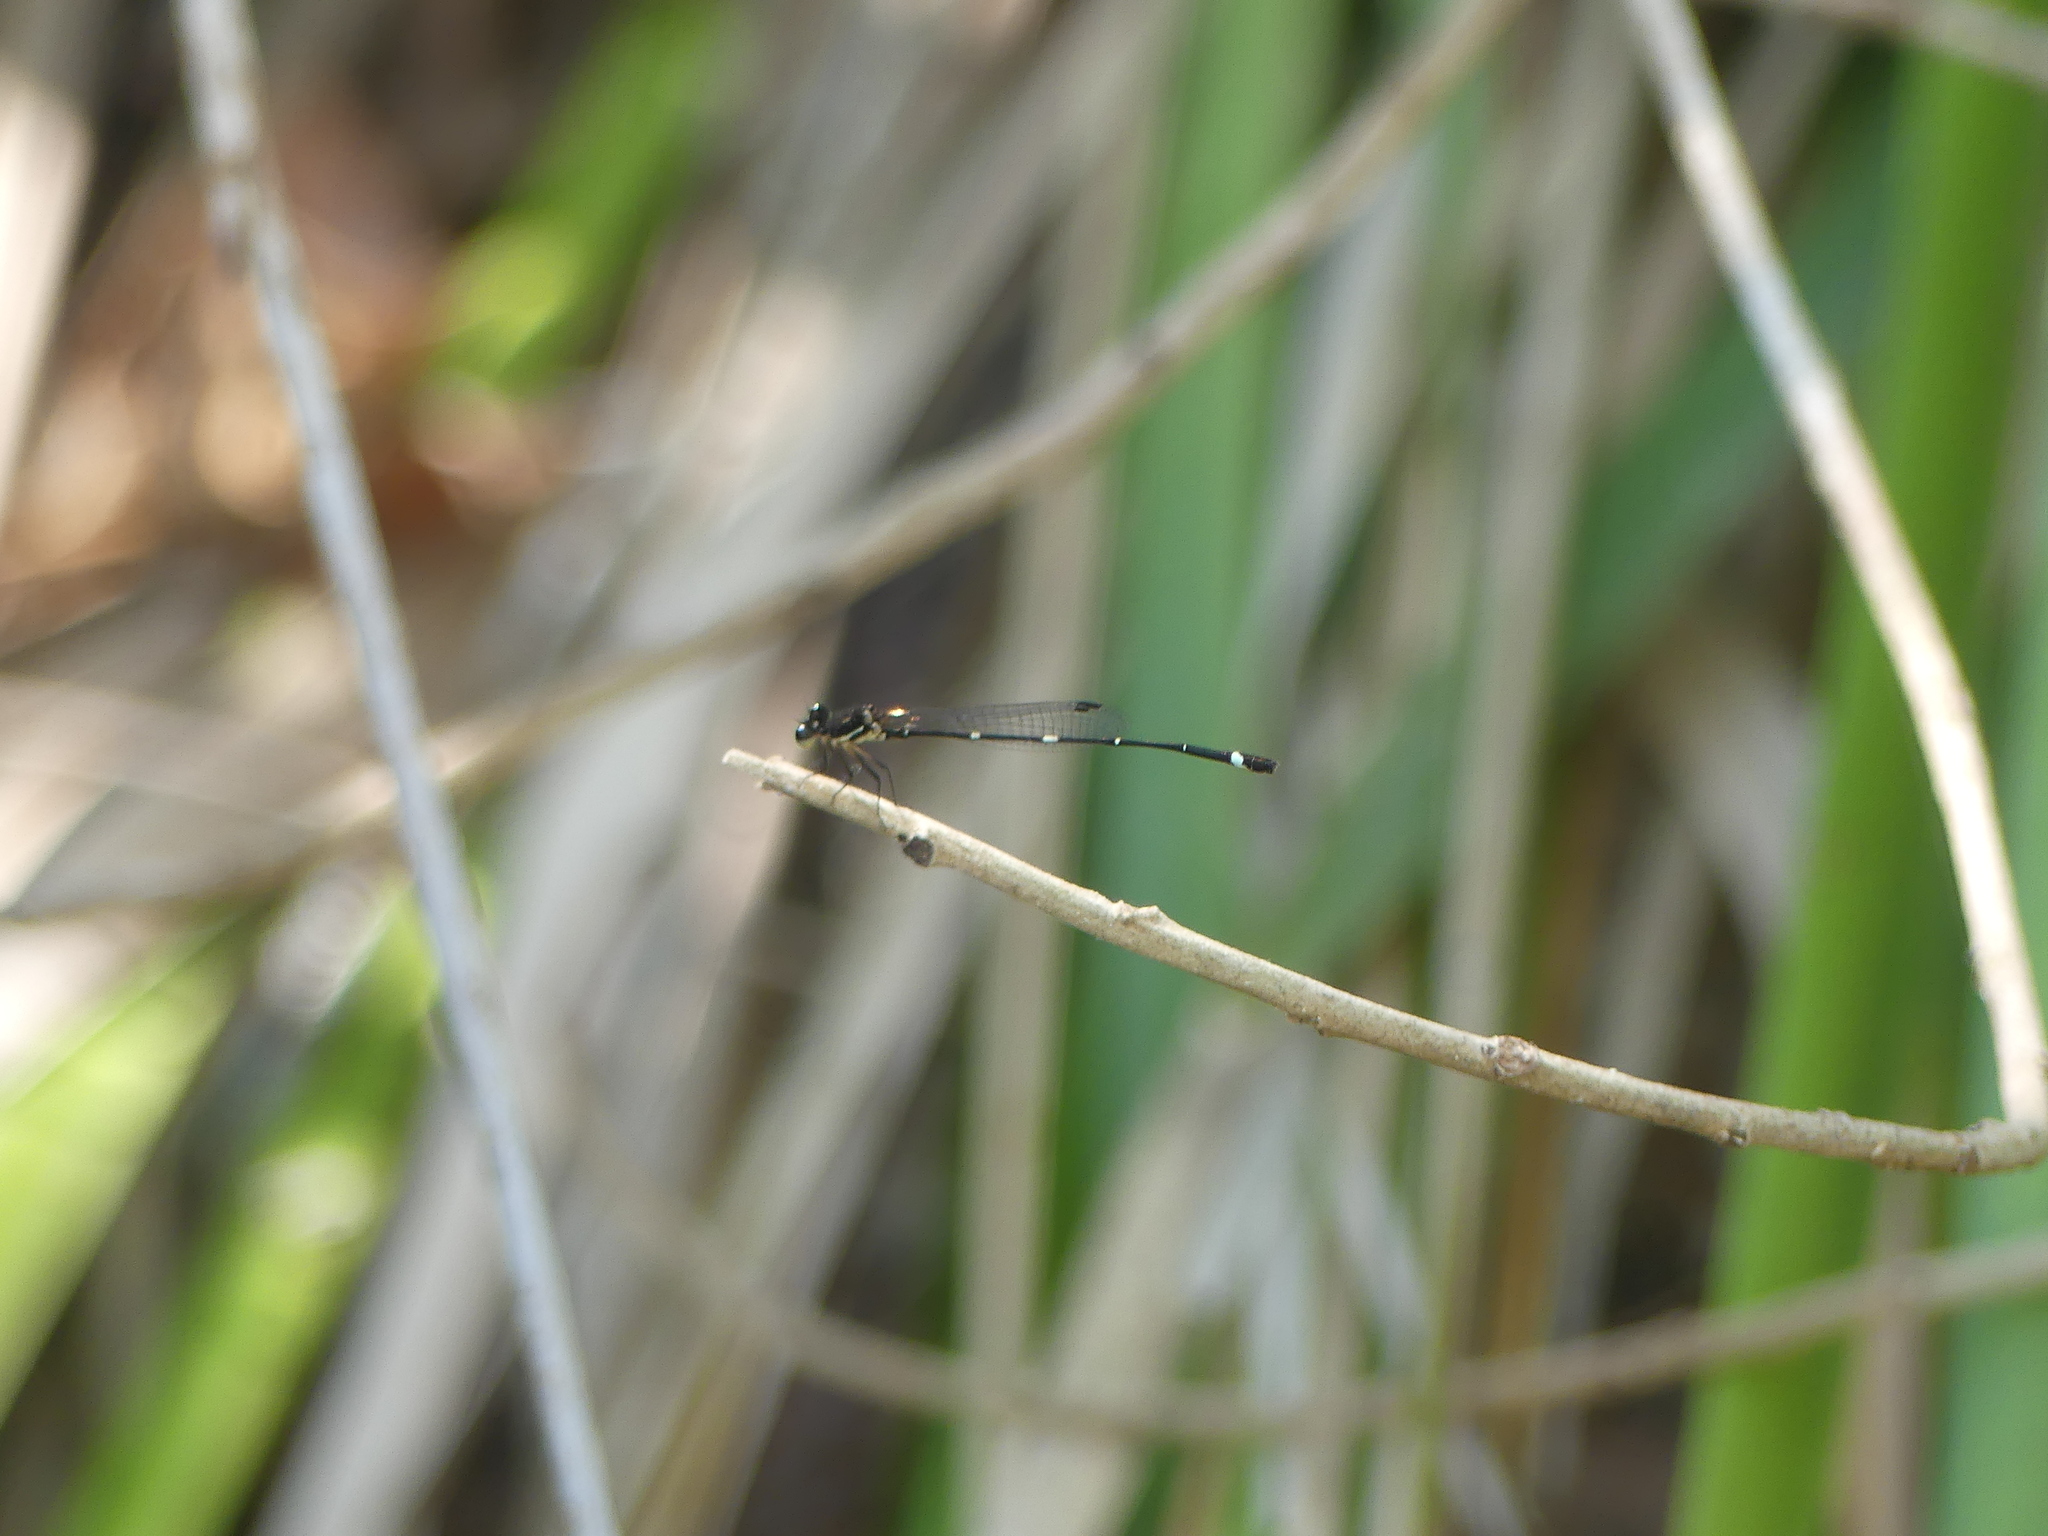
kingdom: Animalia
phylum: Arthropoda
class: Insecta
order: Odonata
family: Platycnemididae
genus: Nososticta
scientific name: Nososticta solitaria
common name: Fivespot threadtail
